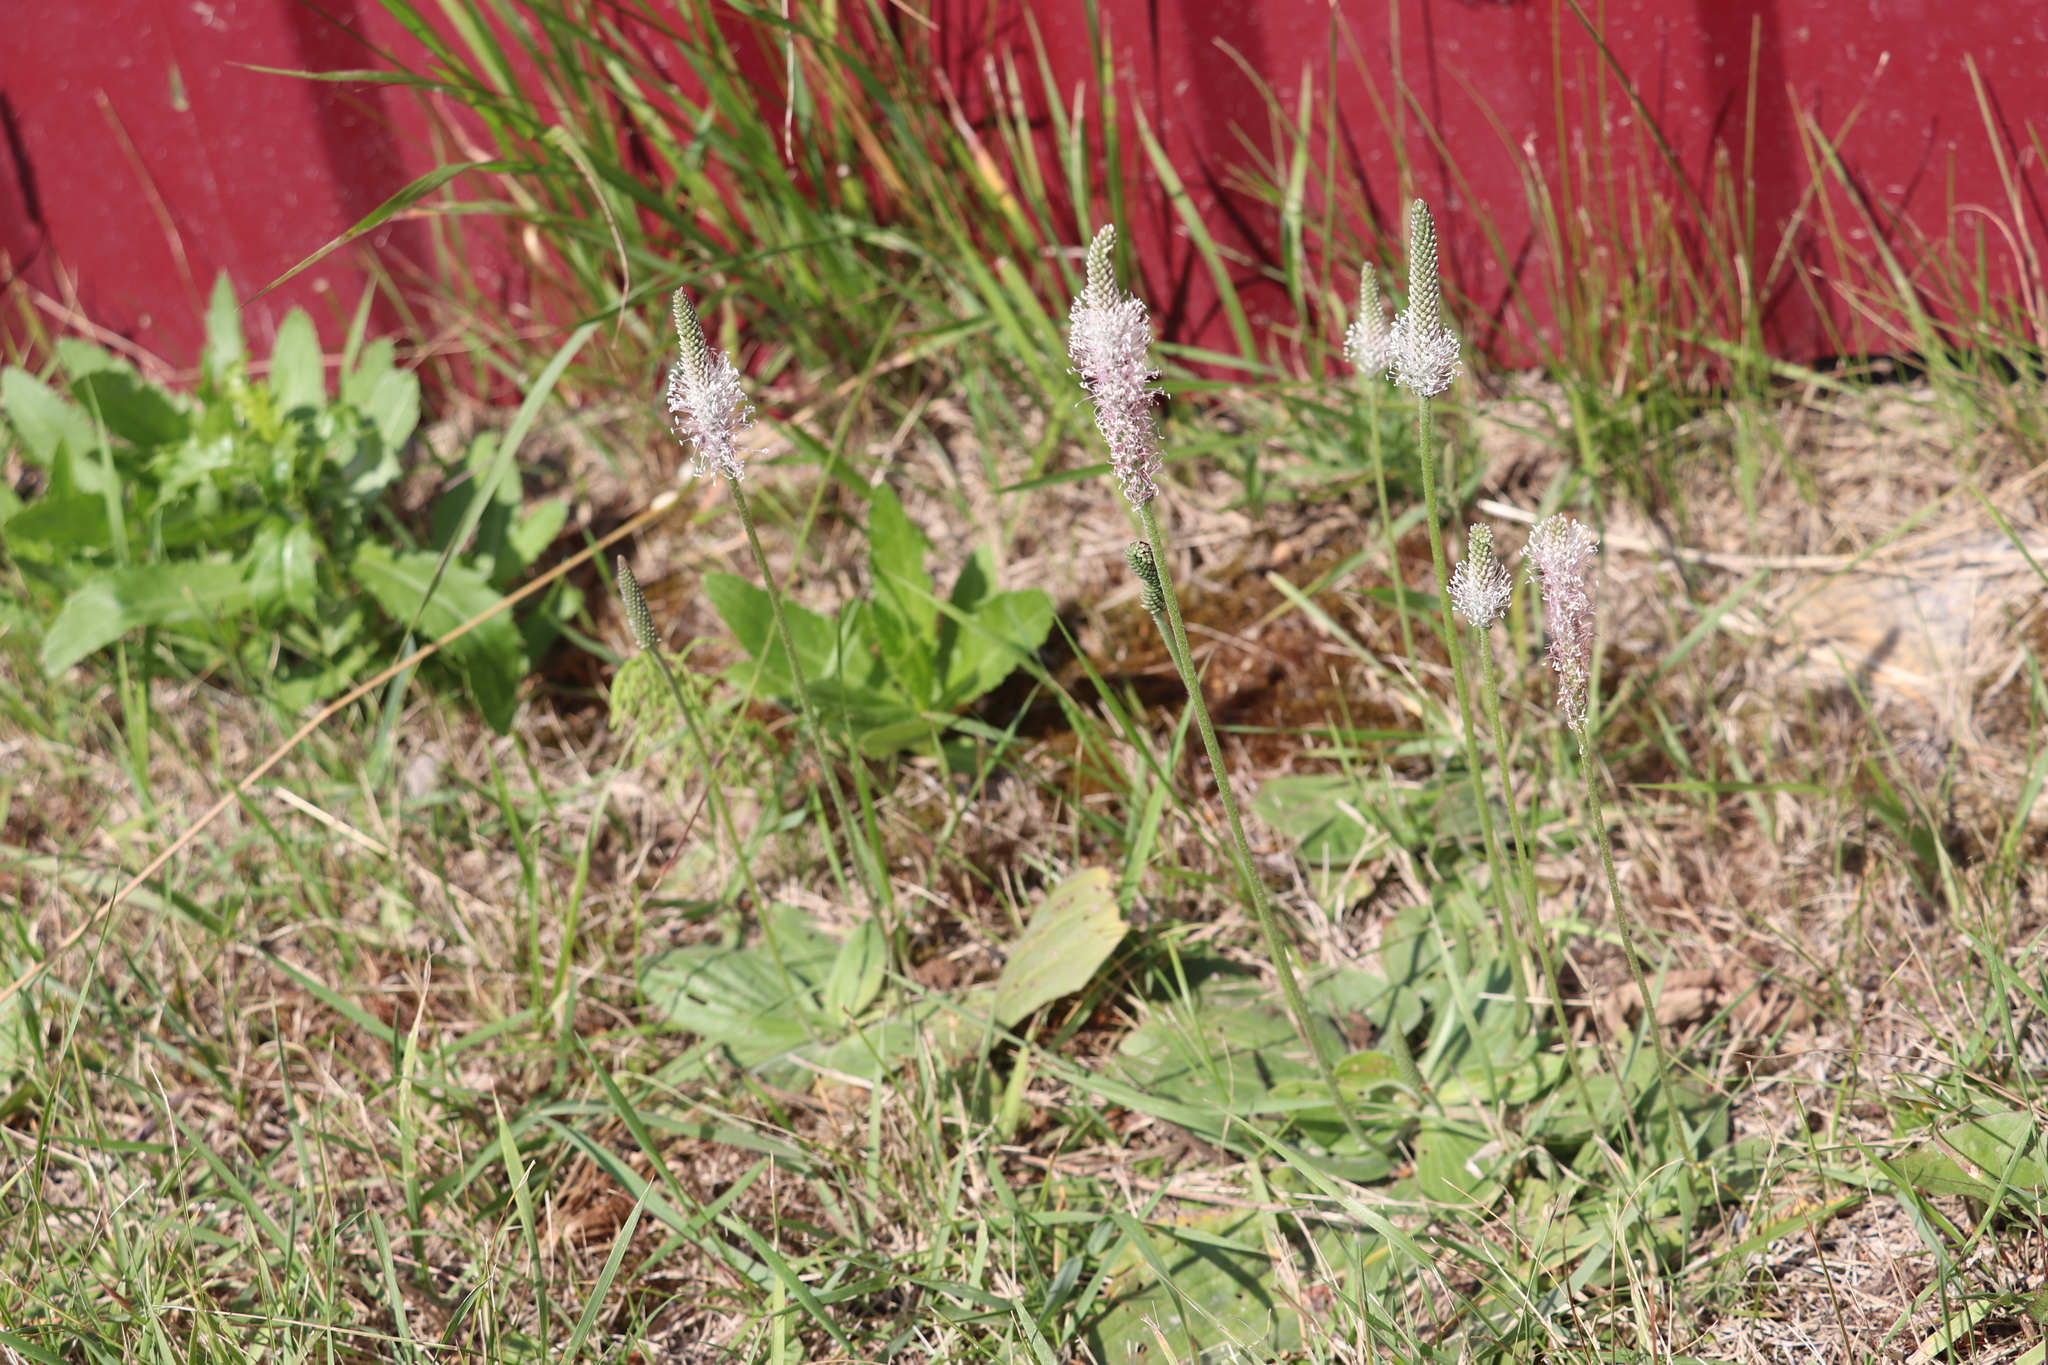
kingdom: Plantae
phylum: Tracheophyta
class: Magnoliopsida
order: Lamiales
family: Plantaginaceae
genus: Plantago
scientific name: Plantago media
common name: Hoary plantain
